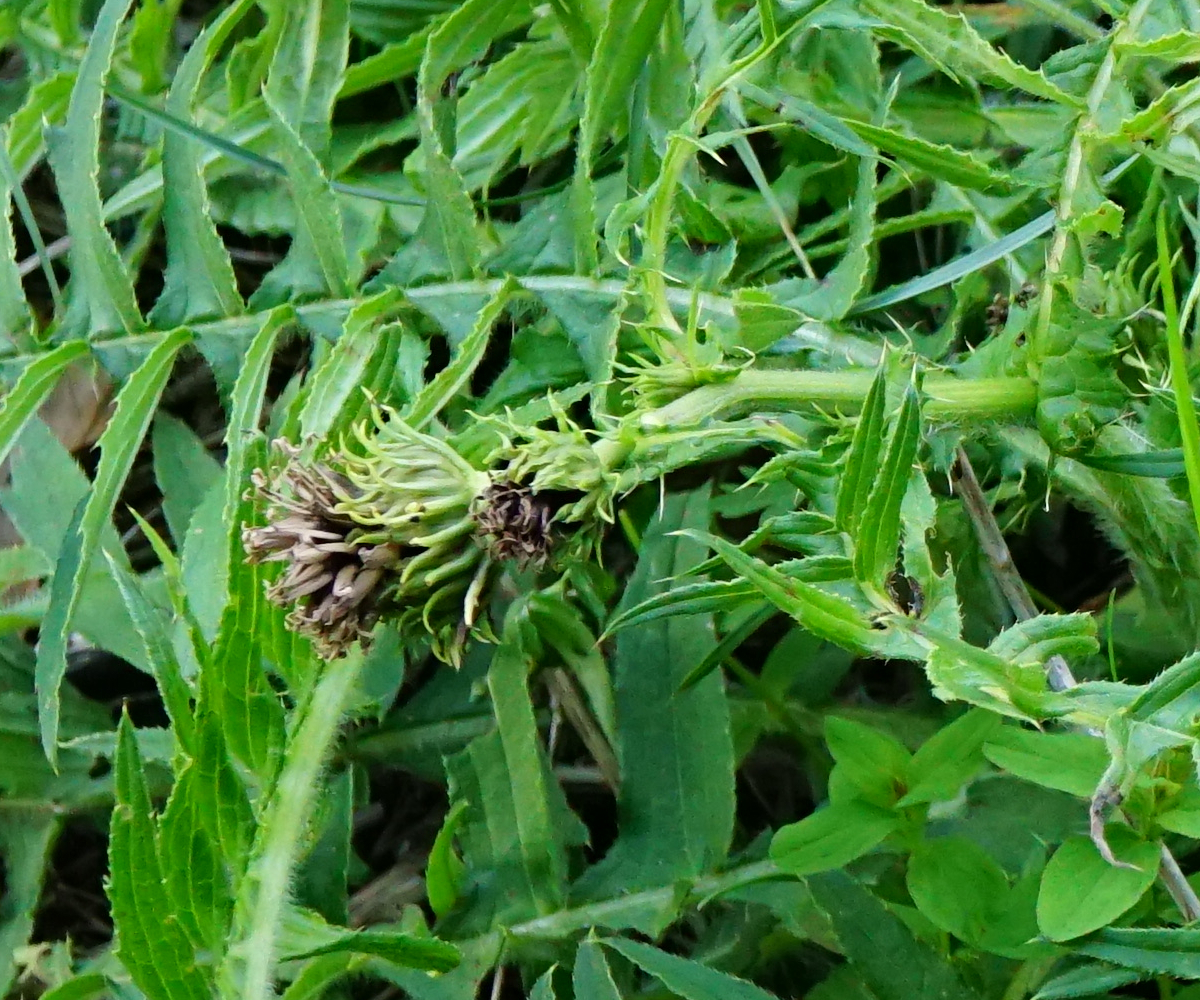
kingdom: Plantae
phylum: Tracheophyta
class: Magnoliopsida
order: Asterales
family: Asteraceae
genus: Cirsium
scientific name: Cirsium erisithales
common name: Yellow thistle
